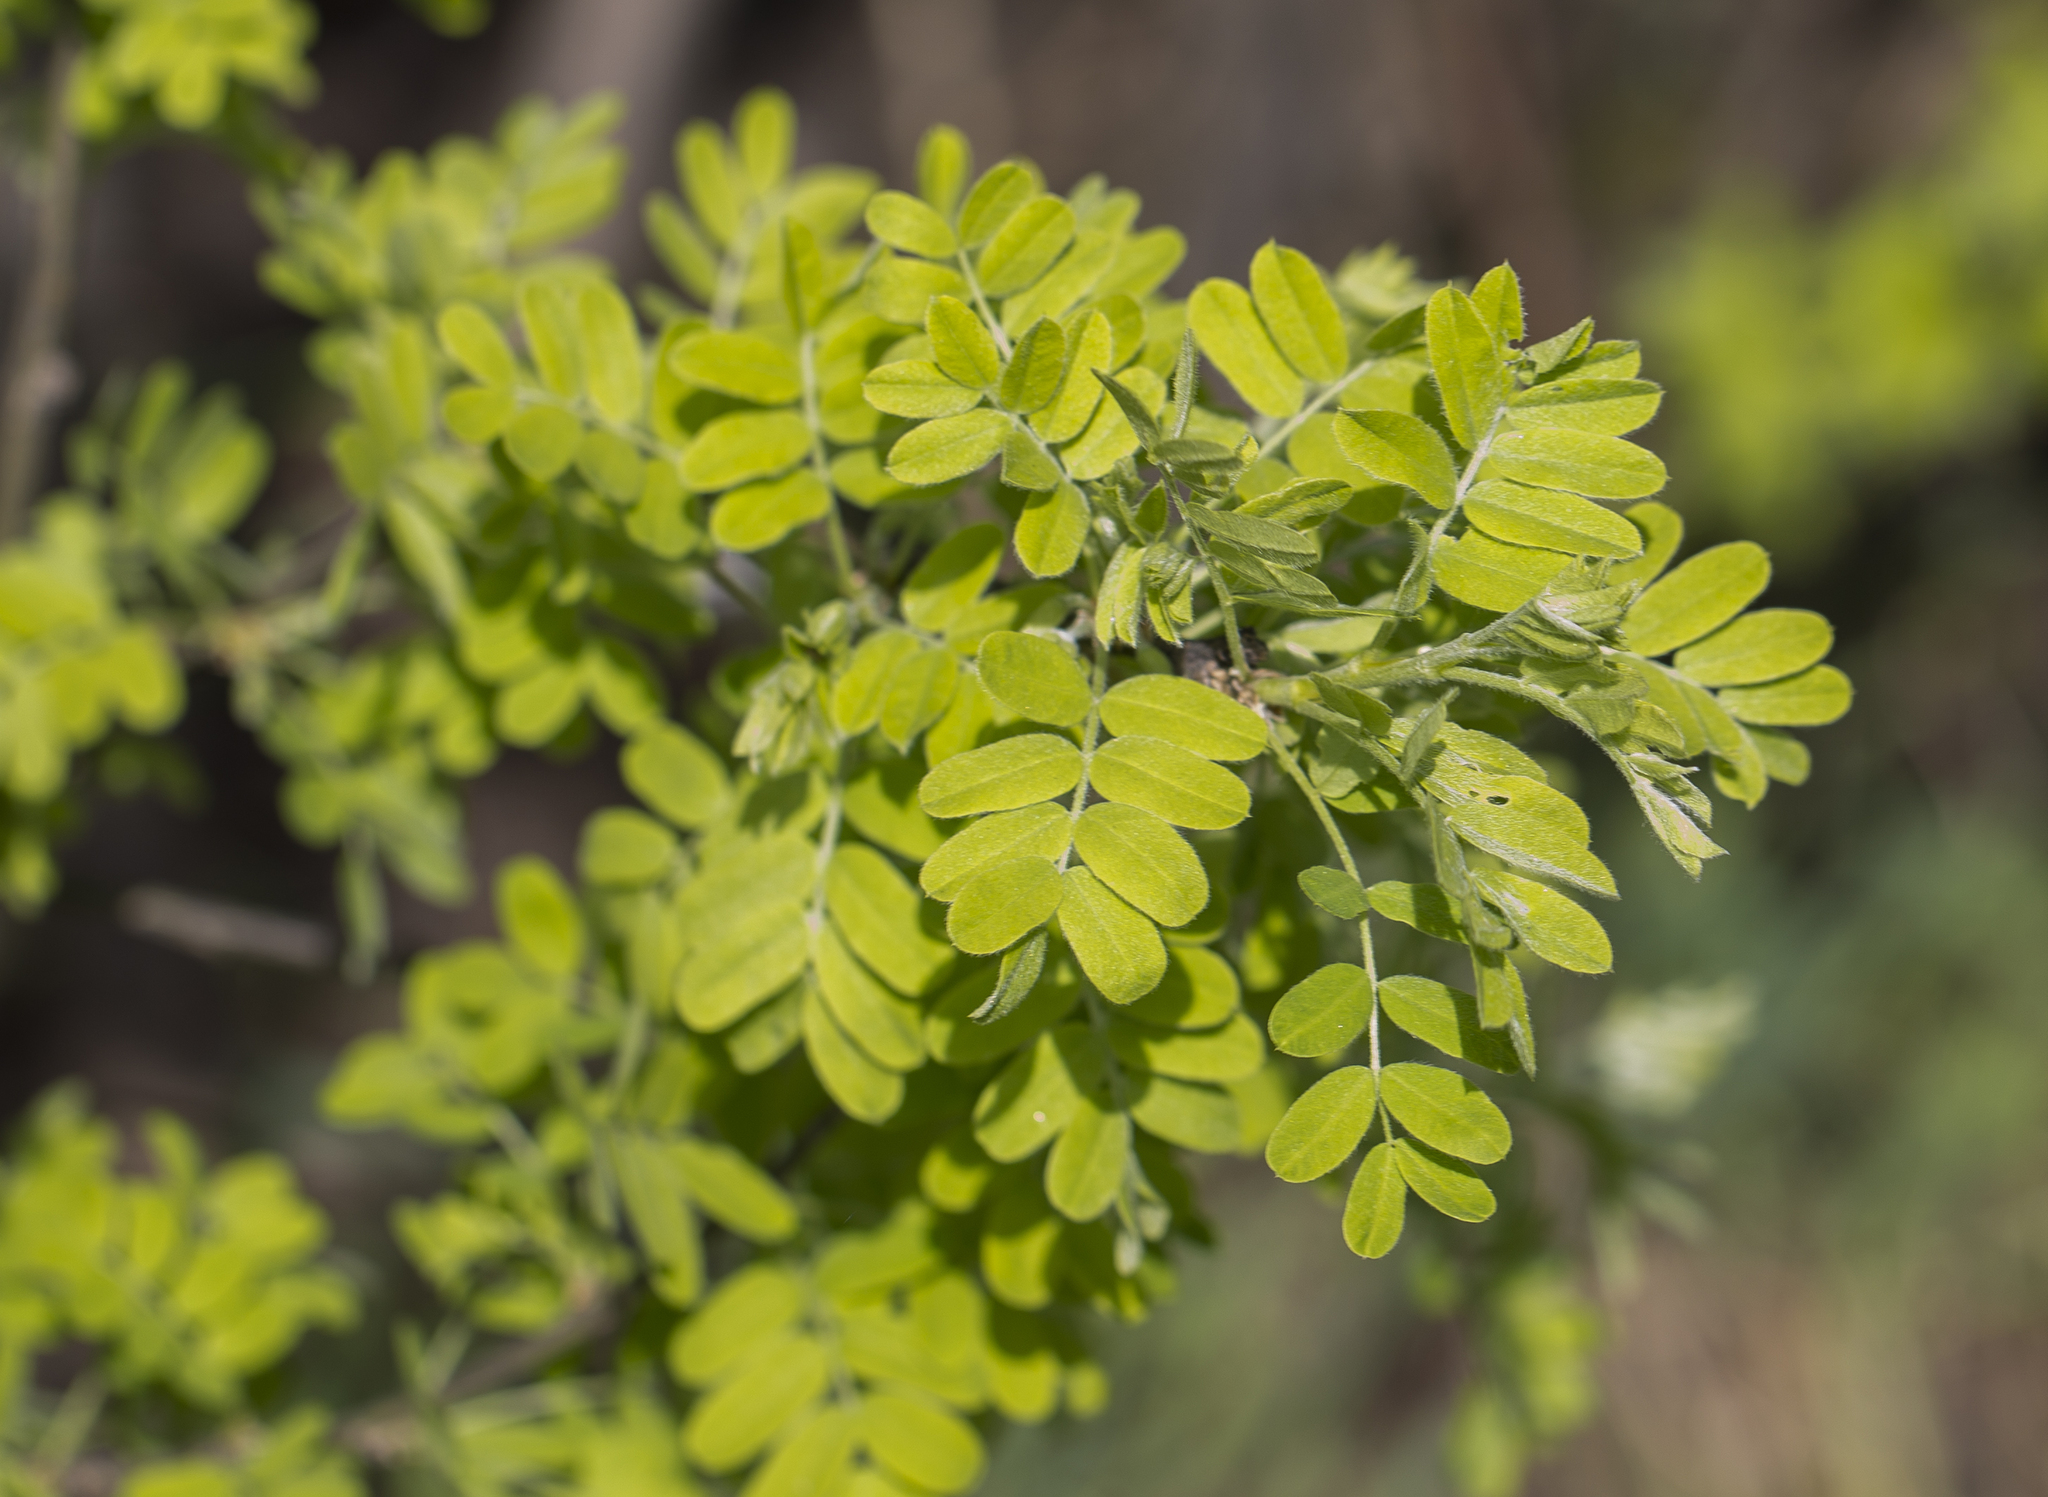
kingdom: Plantae
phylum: Tracheophyta
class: Magnoliopsida
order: Fabales
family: Fabaceae
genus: Caragana
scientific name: Caragana arborescens
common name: Siberian peashrub
